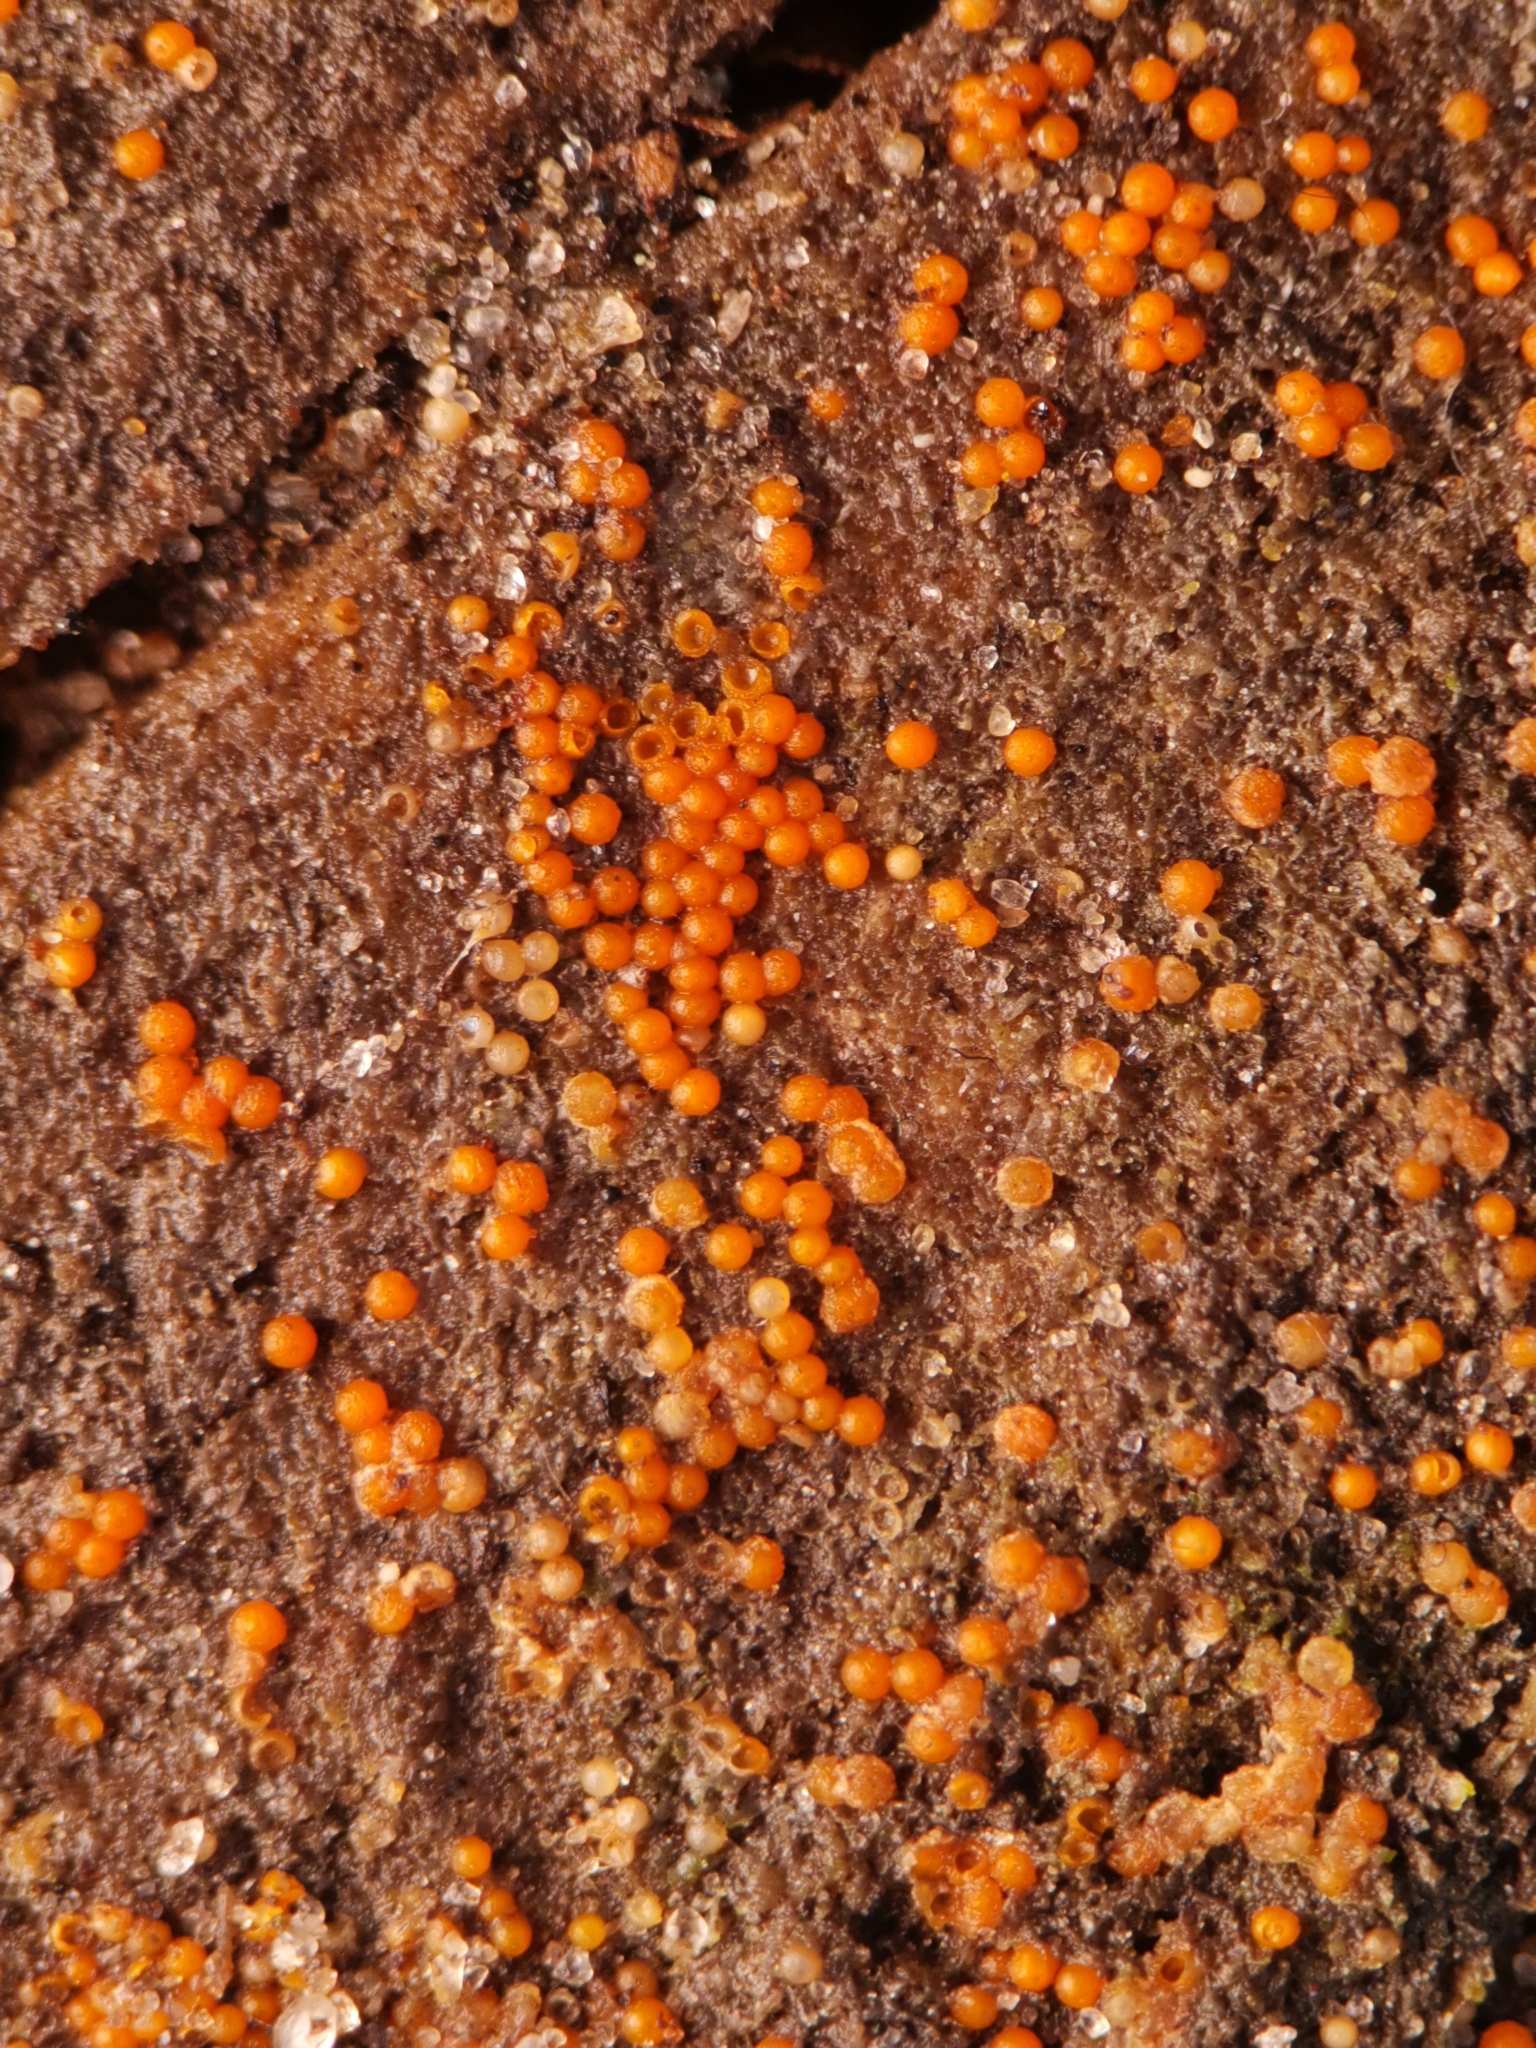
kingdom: Fungi
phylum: Ascomycota
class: Sordariomycetes
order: Hypocreales
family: Nectriaceae
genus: Hydropisphaera
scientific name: Hydropisphaera peziza
